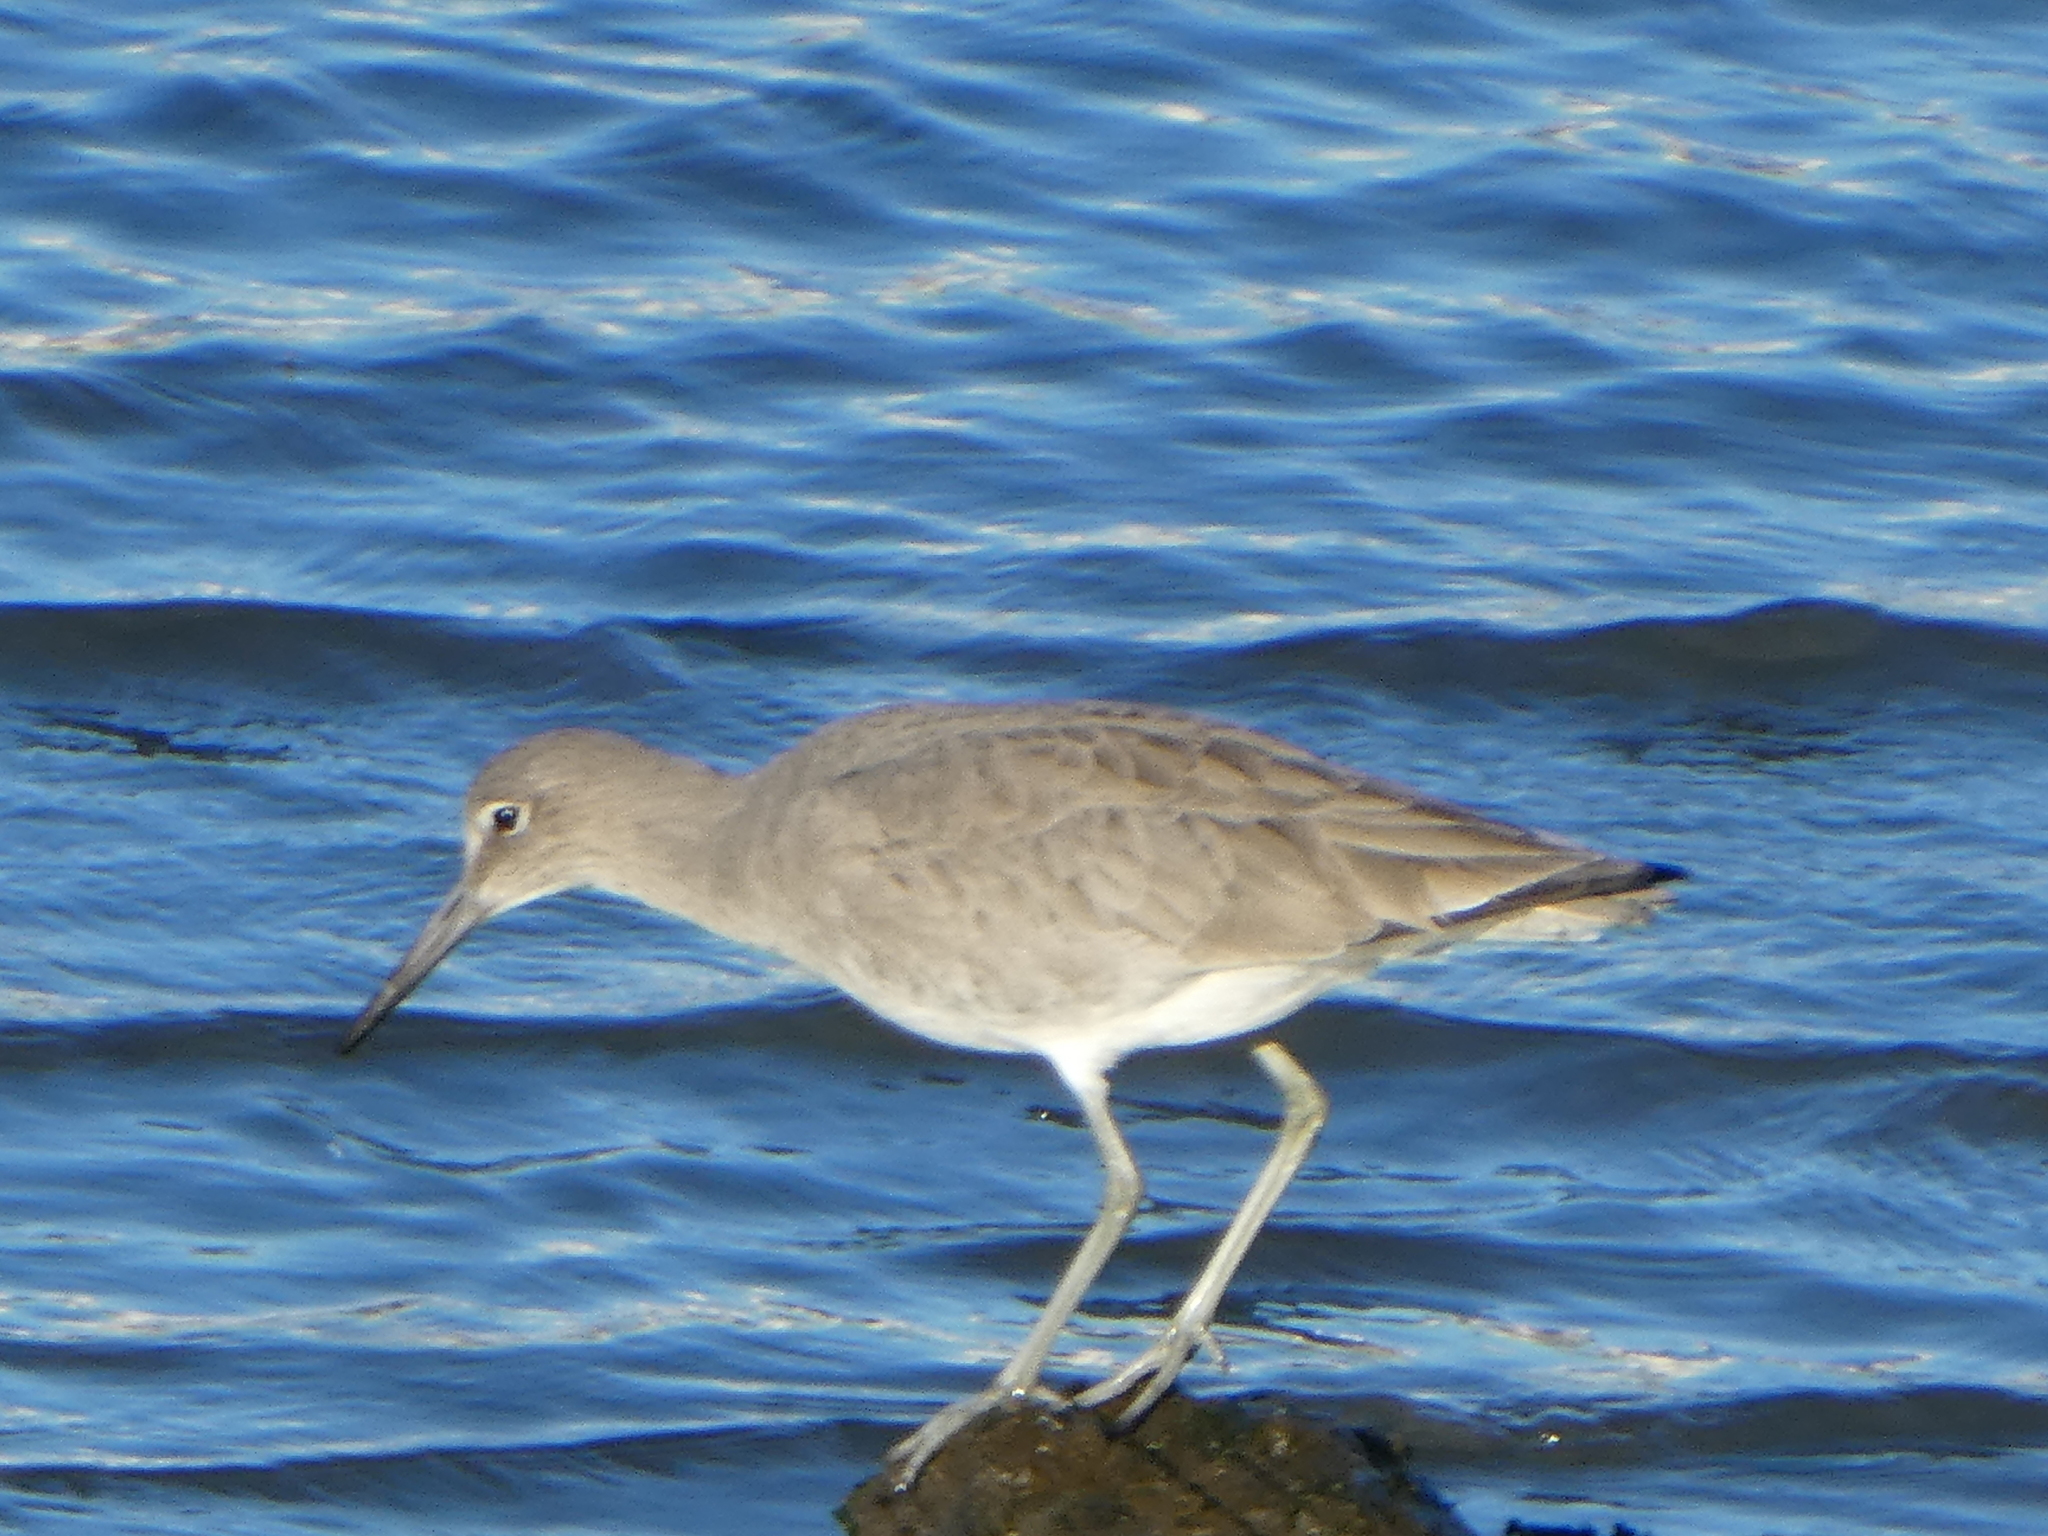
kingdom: Animalia
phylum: Chordata
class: Aves
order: Charadriiformes
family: Scolopacidae
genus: Tringa
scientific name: Tringa semipalmata
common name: Willet
